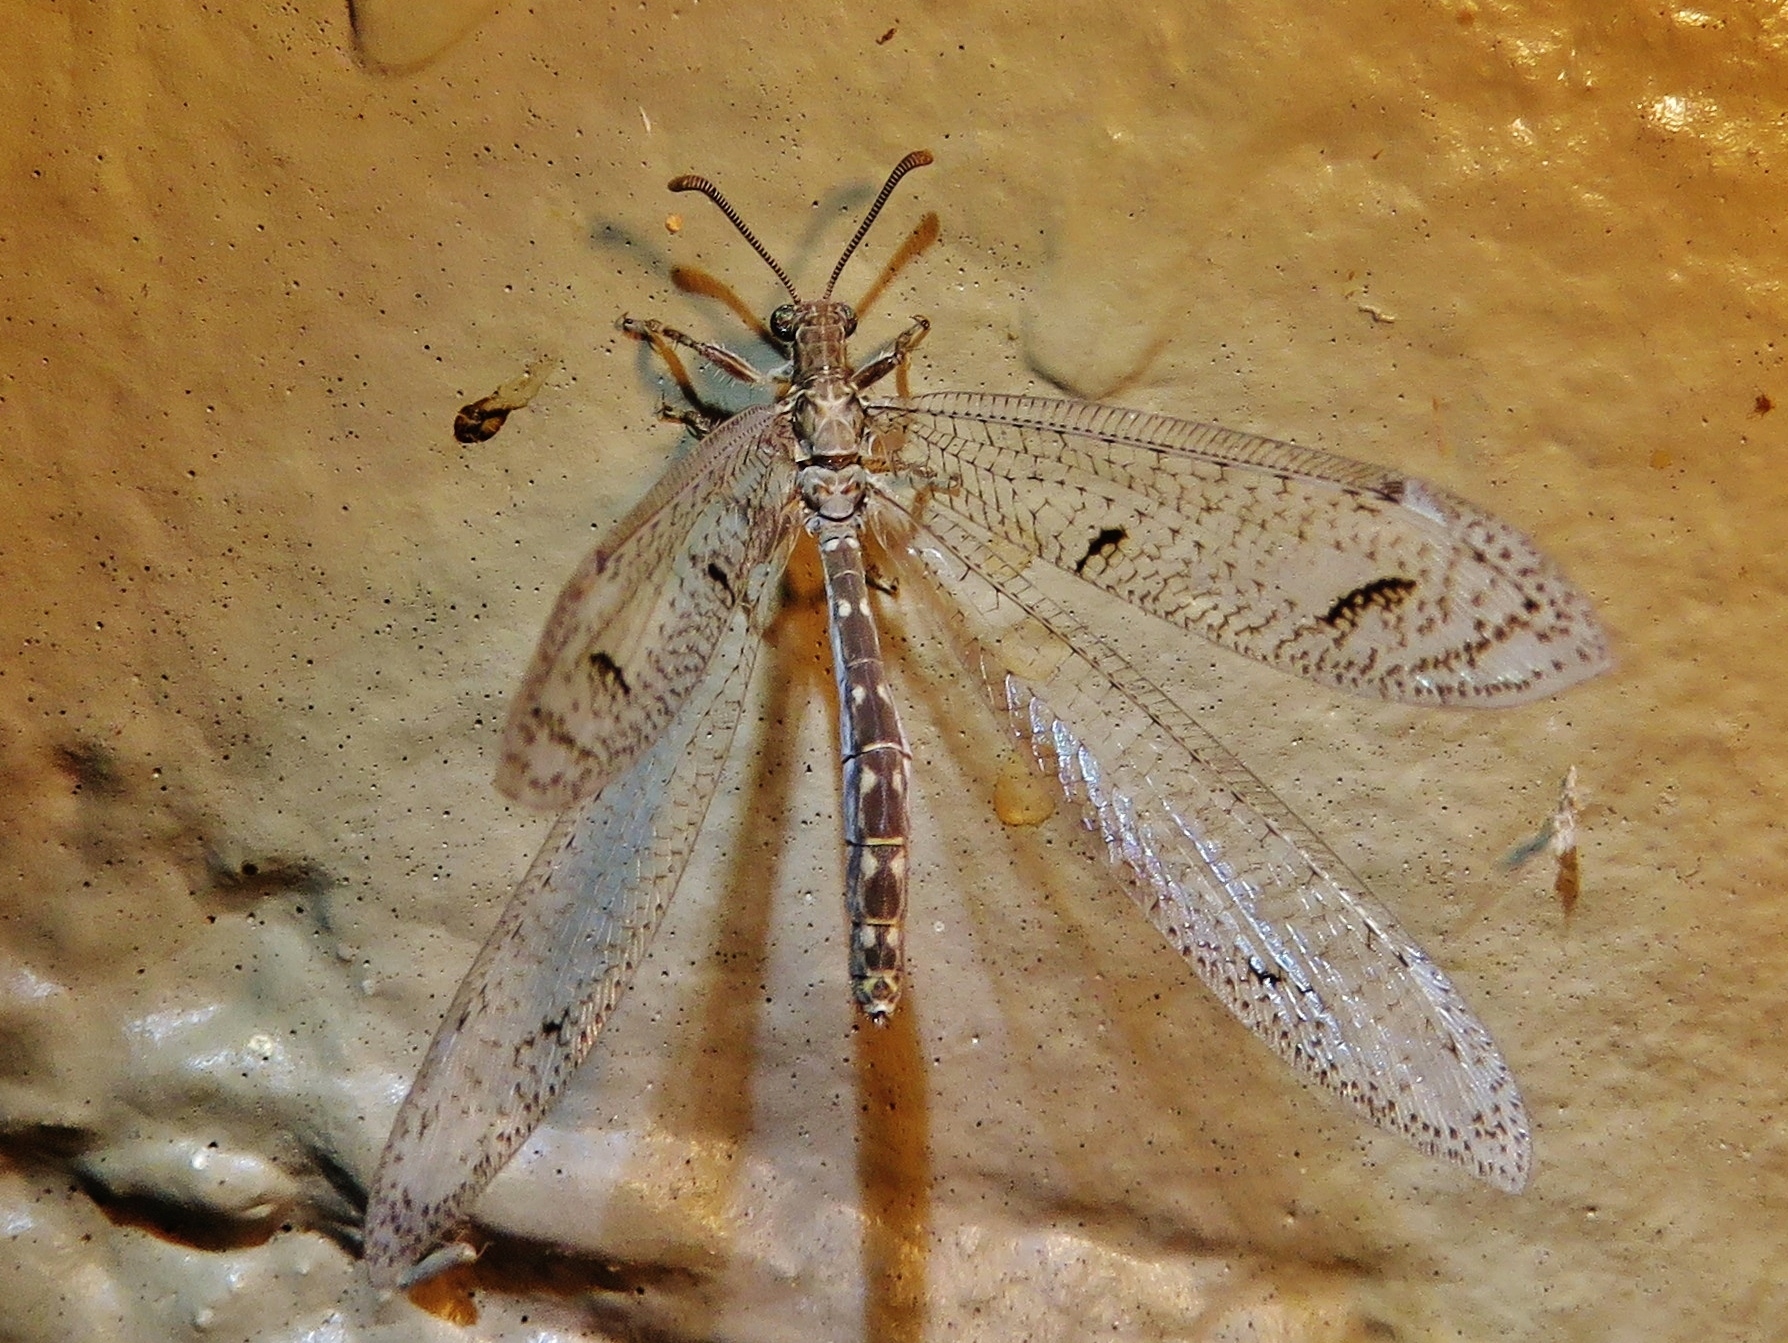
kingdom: Animalia
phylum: Arthropoda
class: Insecta
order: Neuroptera
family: Myrmeleontidae
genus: Euptilon
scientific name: Euptilon ornatum
